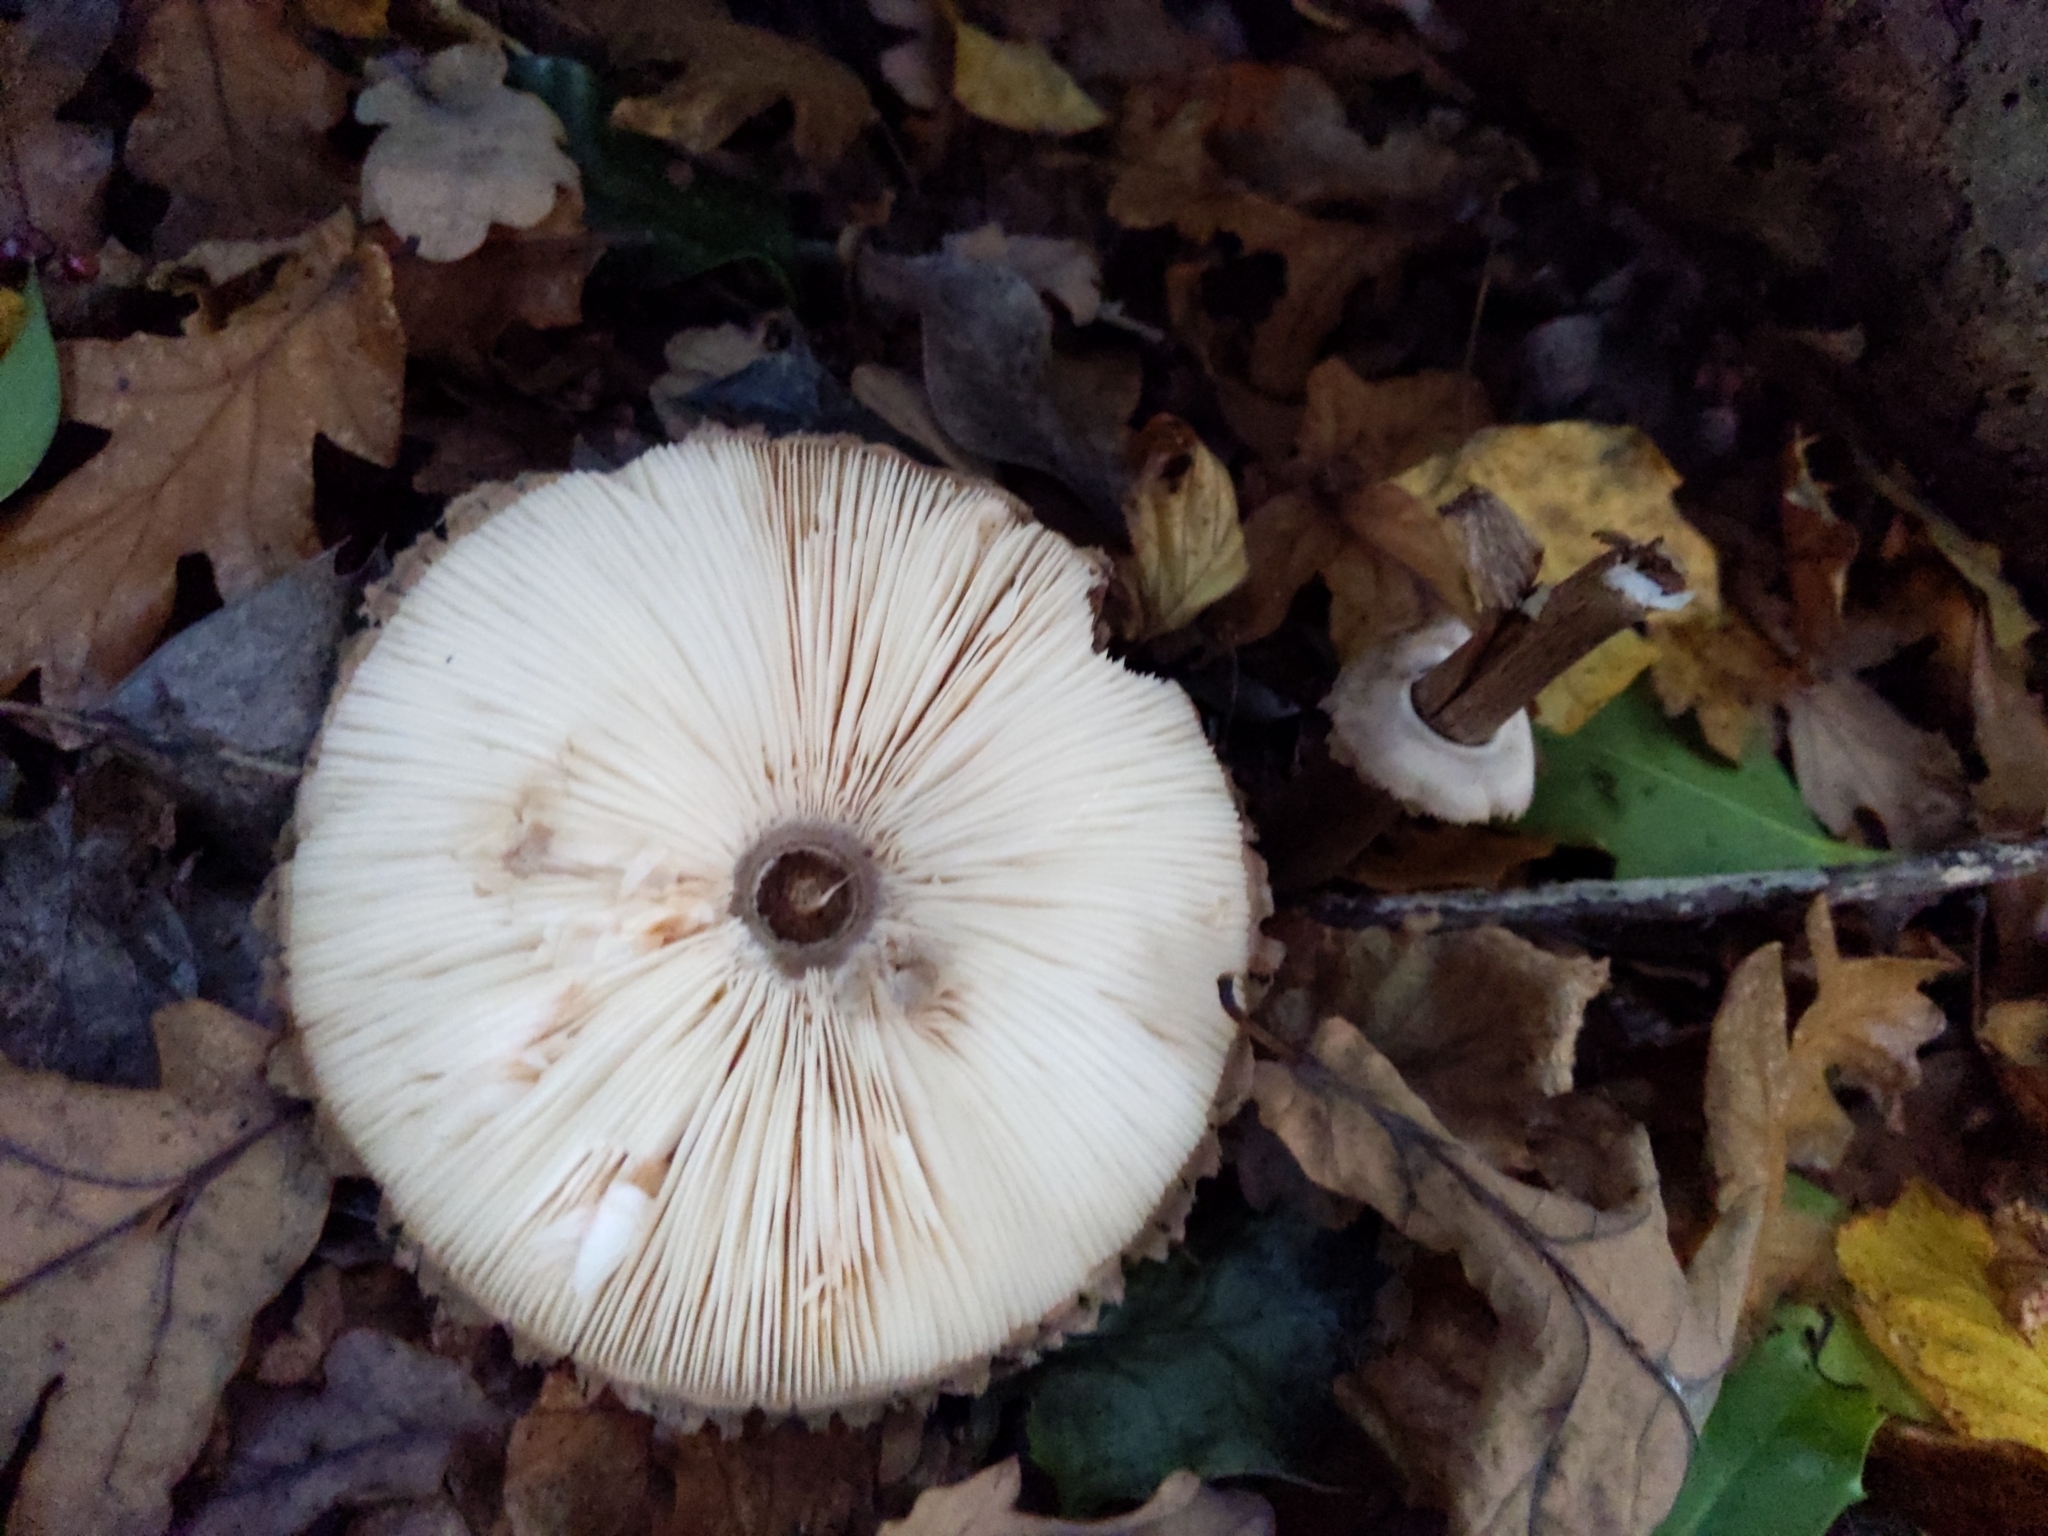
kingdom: Fungi
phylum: Basidiomycota
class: Agaricomycetes
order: Agaricales
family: Agaricaceae
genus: Macrolepiota
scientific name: Macrolepiota procera
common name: Parasol
